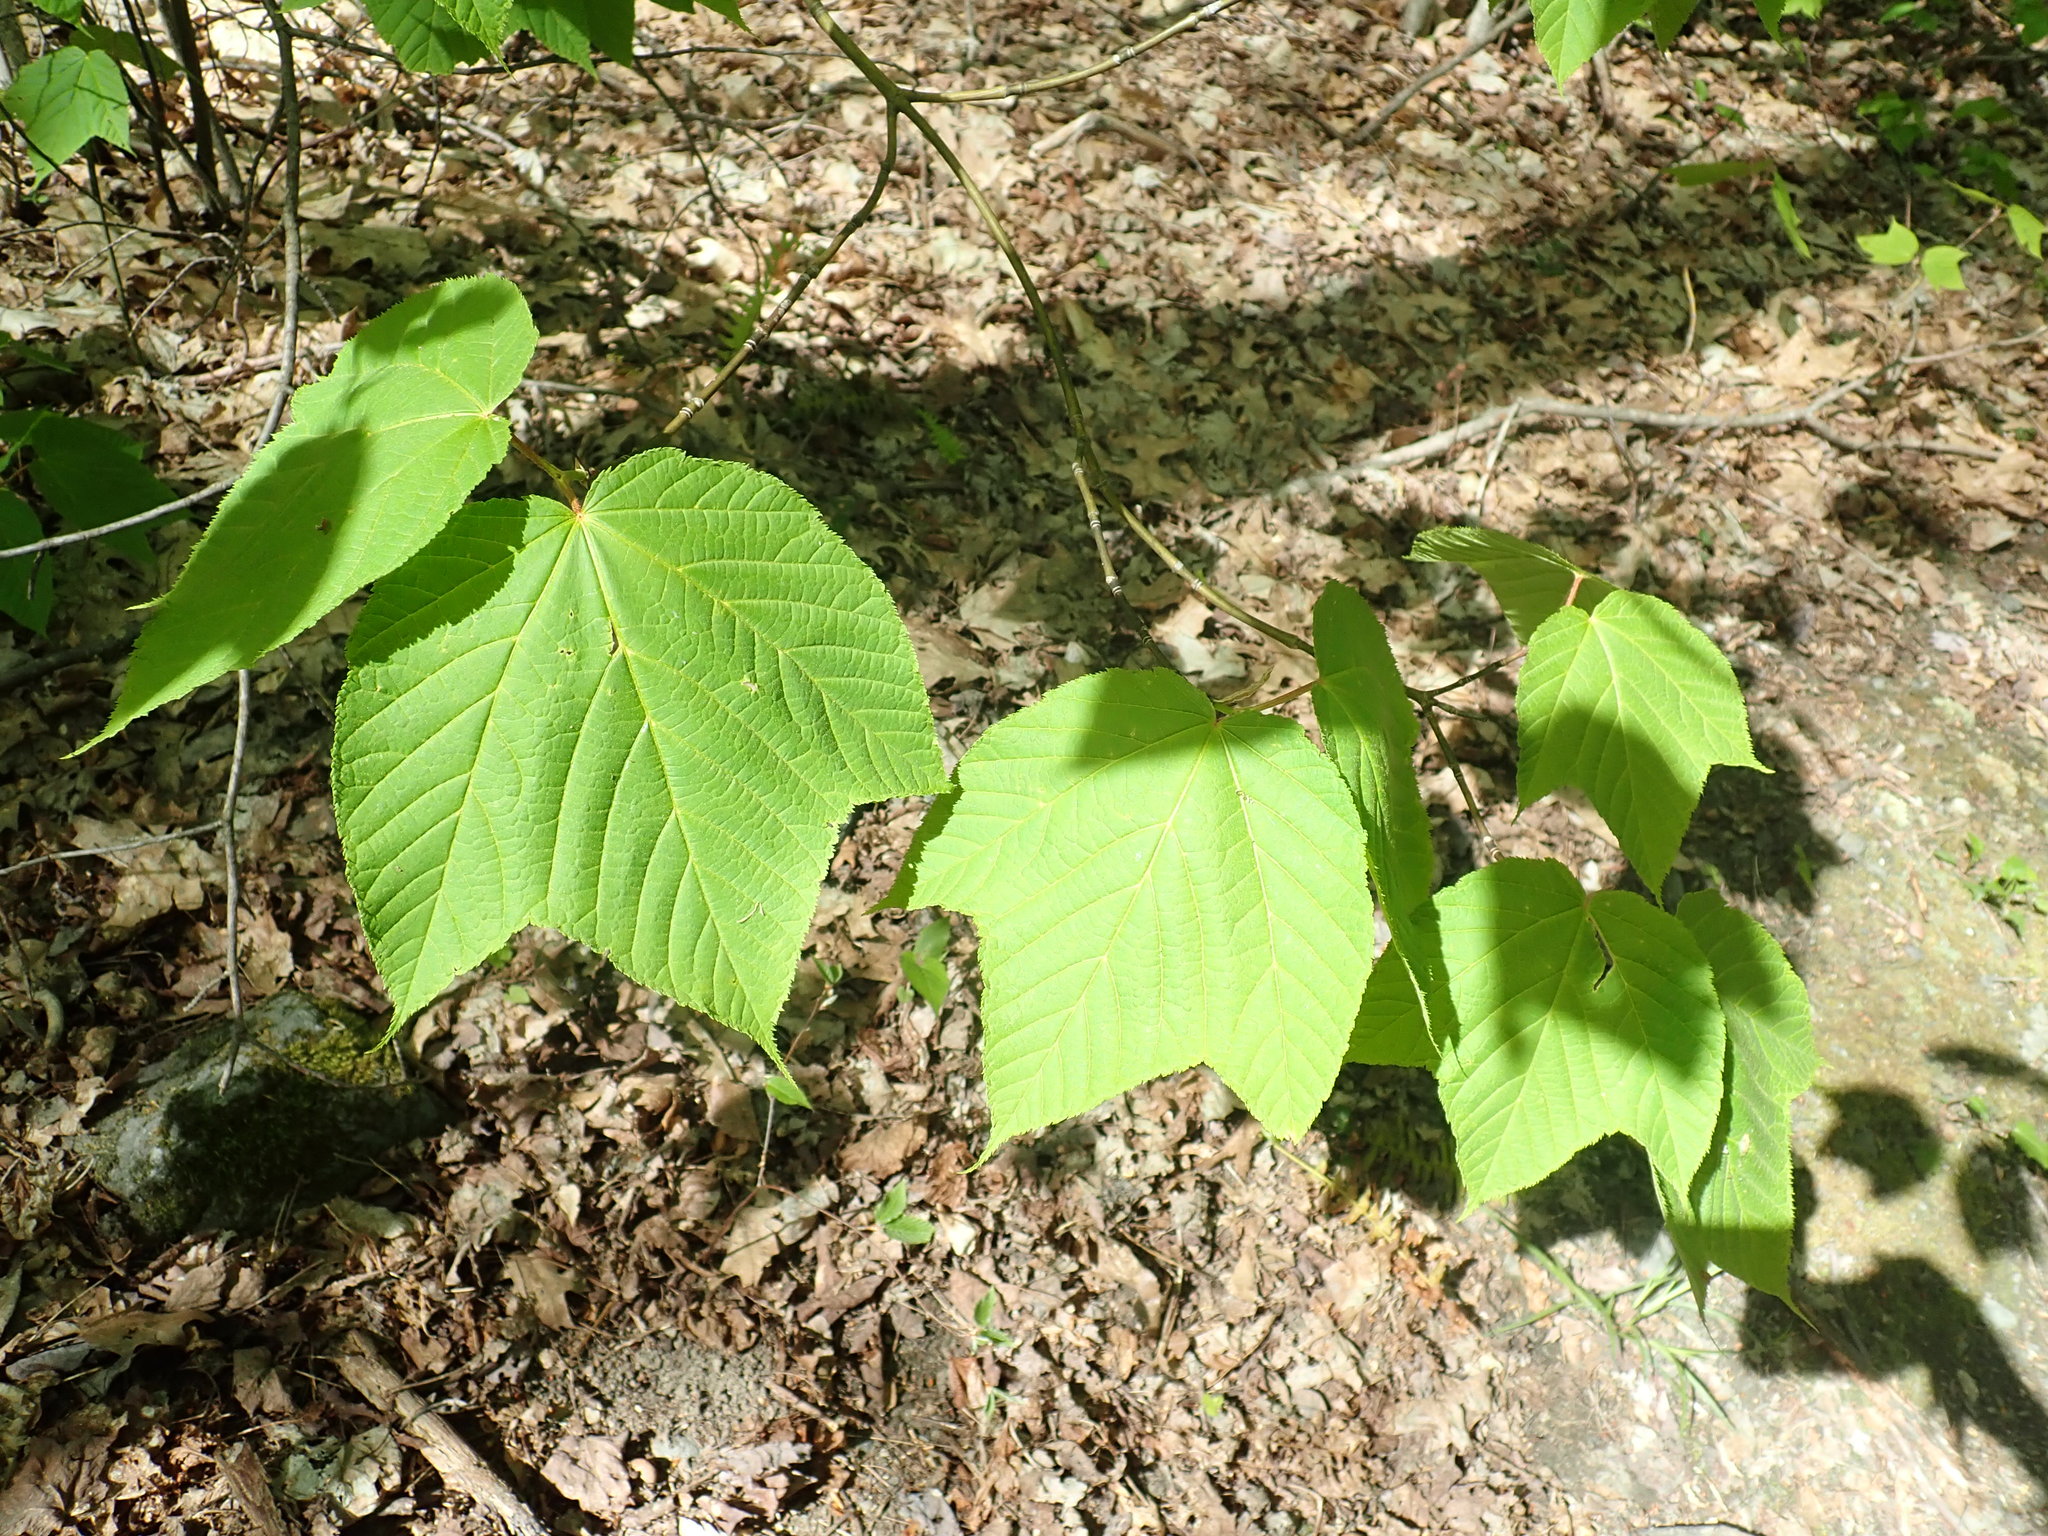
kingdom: Plantae
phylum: Tracheophyta
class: Magnoliopsida
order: Sapindales
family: Sapindaceae
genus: Acer
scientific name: Acer pensylvanicum
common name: Moosewood
